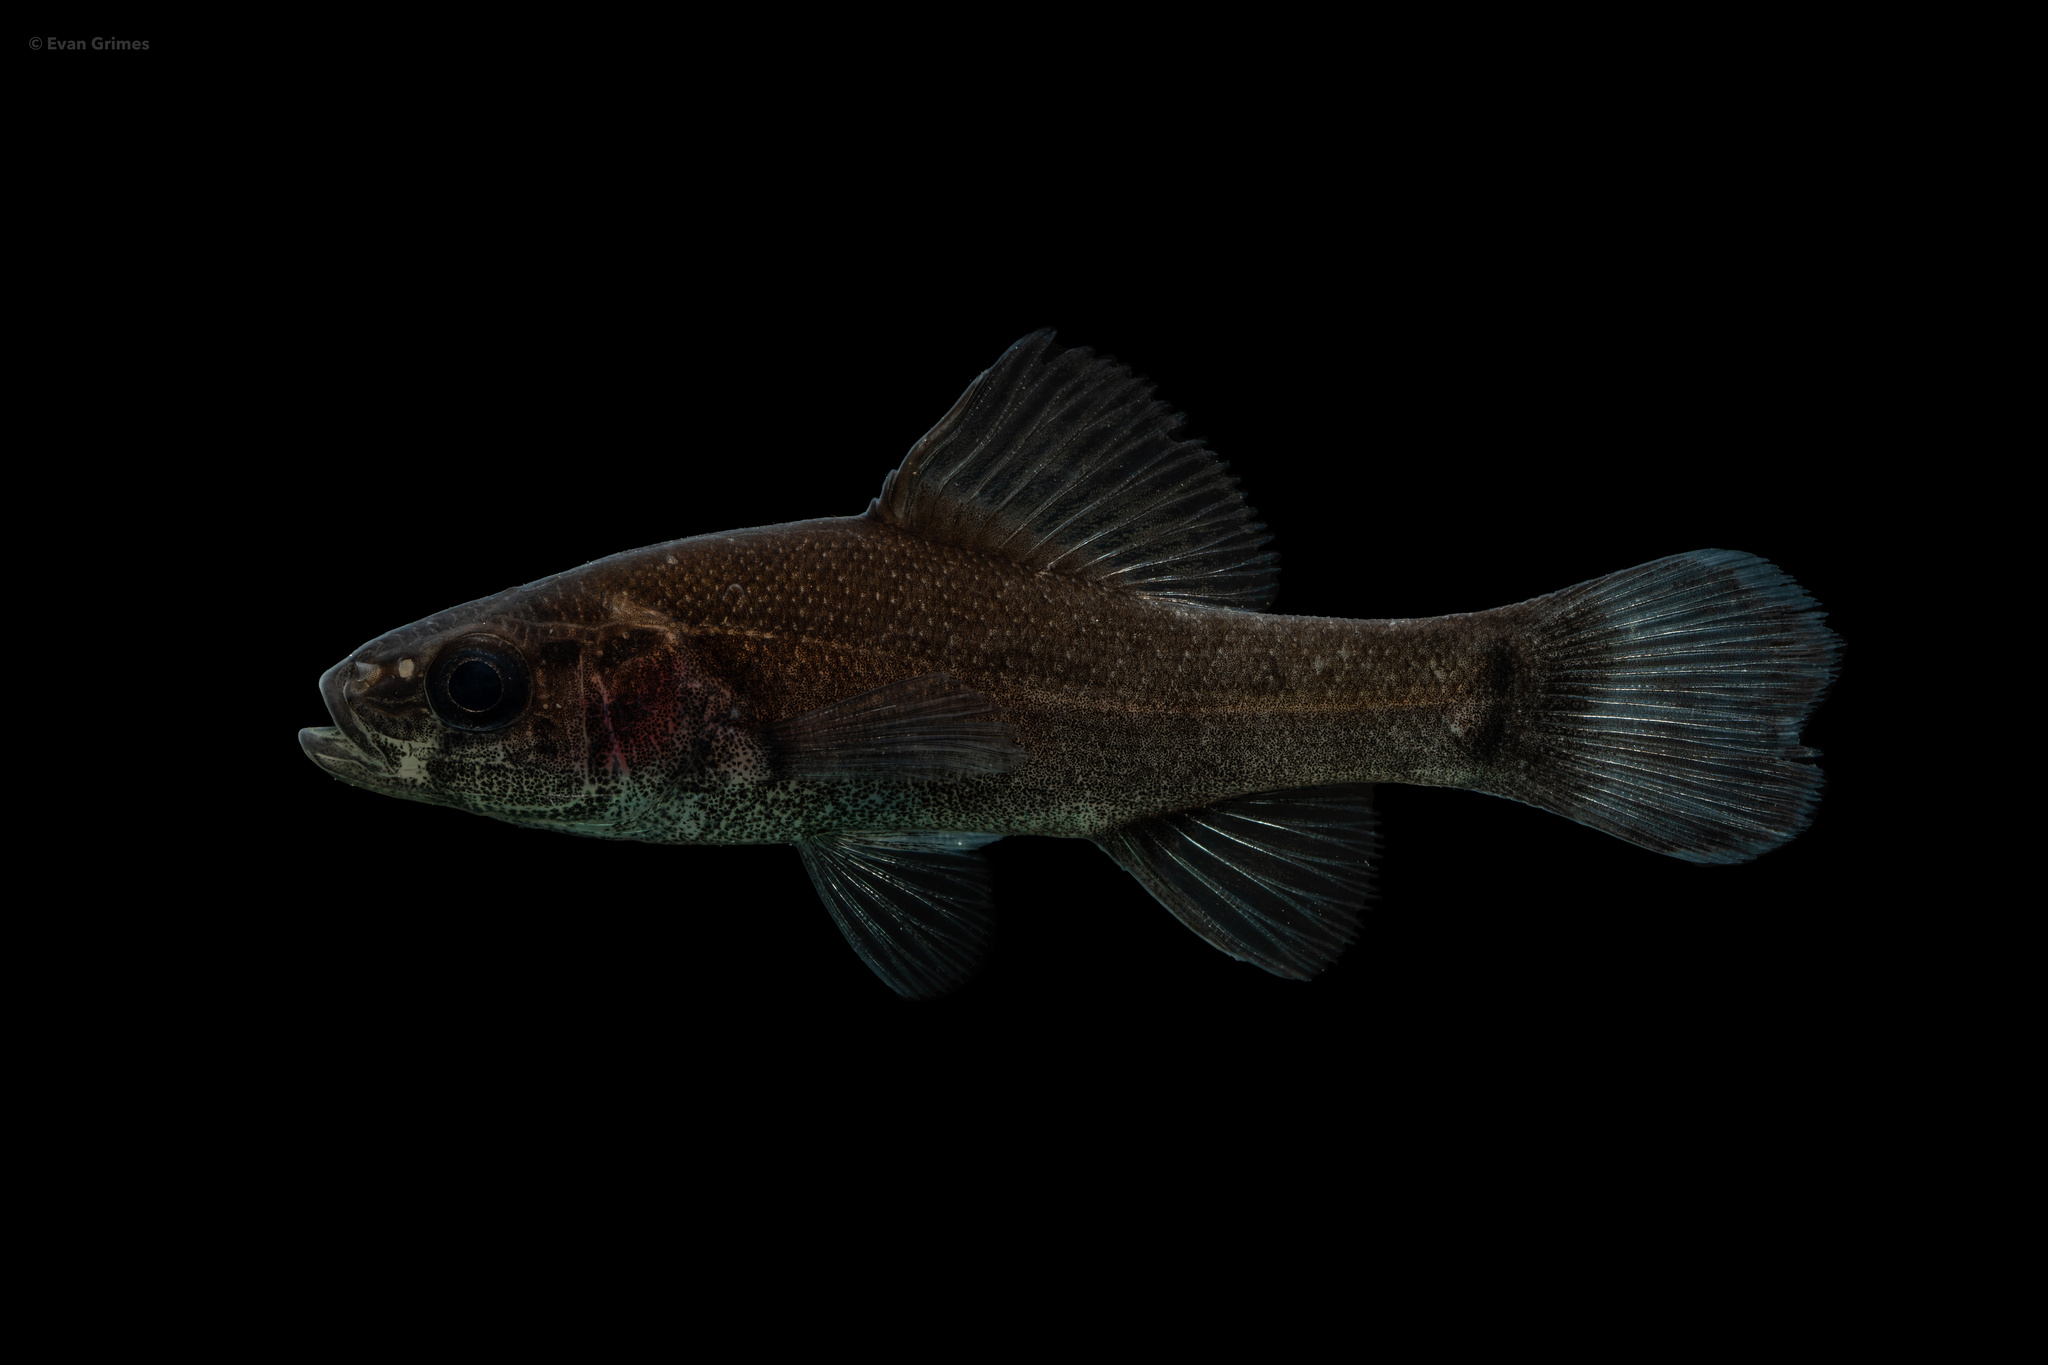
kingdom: Animalia
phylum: Chordata
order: Percopsiformes
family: Aphredoderidae
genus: Aphredoderus
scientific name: Aphredoderus
